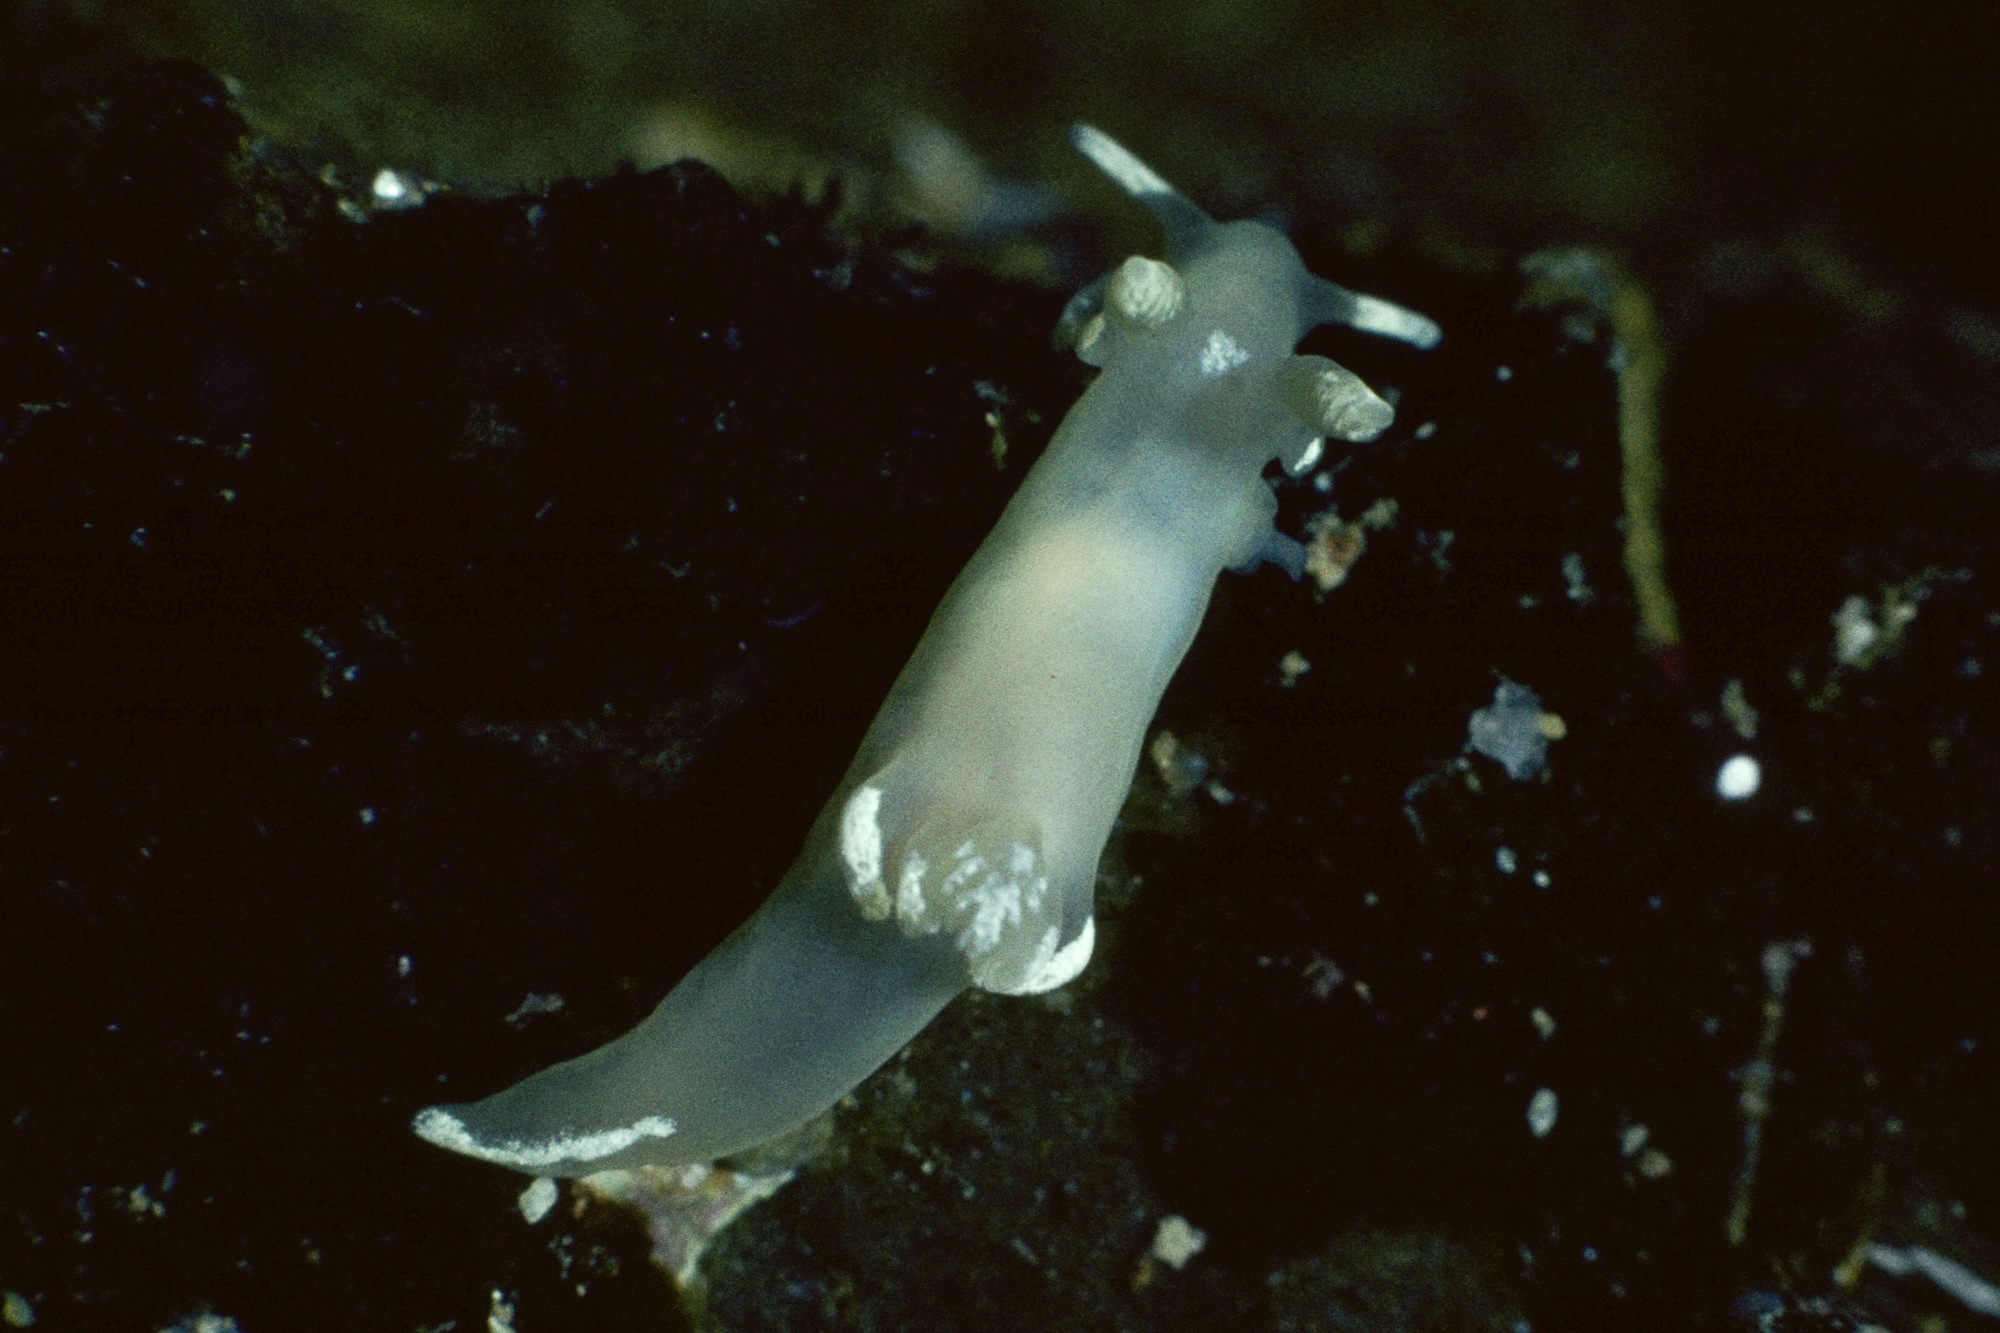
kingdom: Animalia
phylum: Mollusca
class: Gastropoda
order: Nudibranchia
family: Goniodorididae
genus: Trapania
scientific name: Trapania lineata
